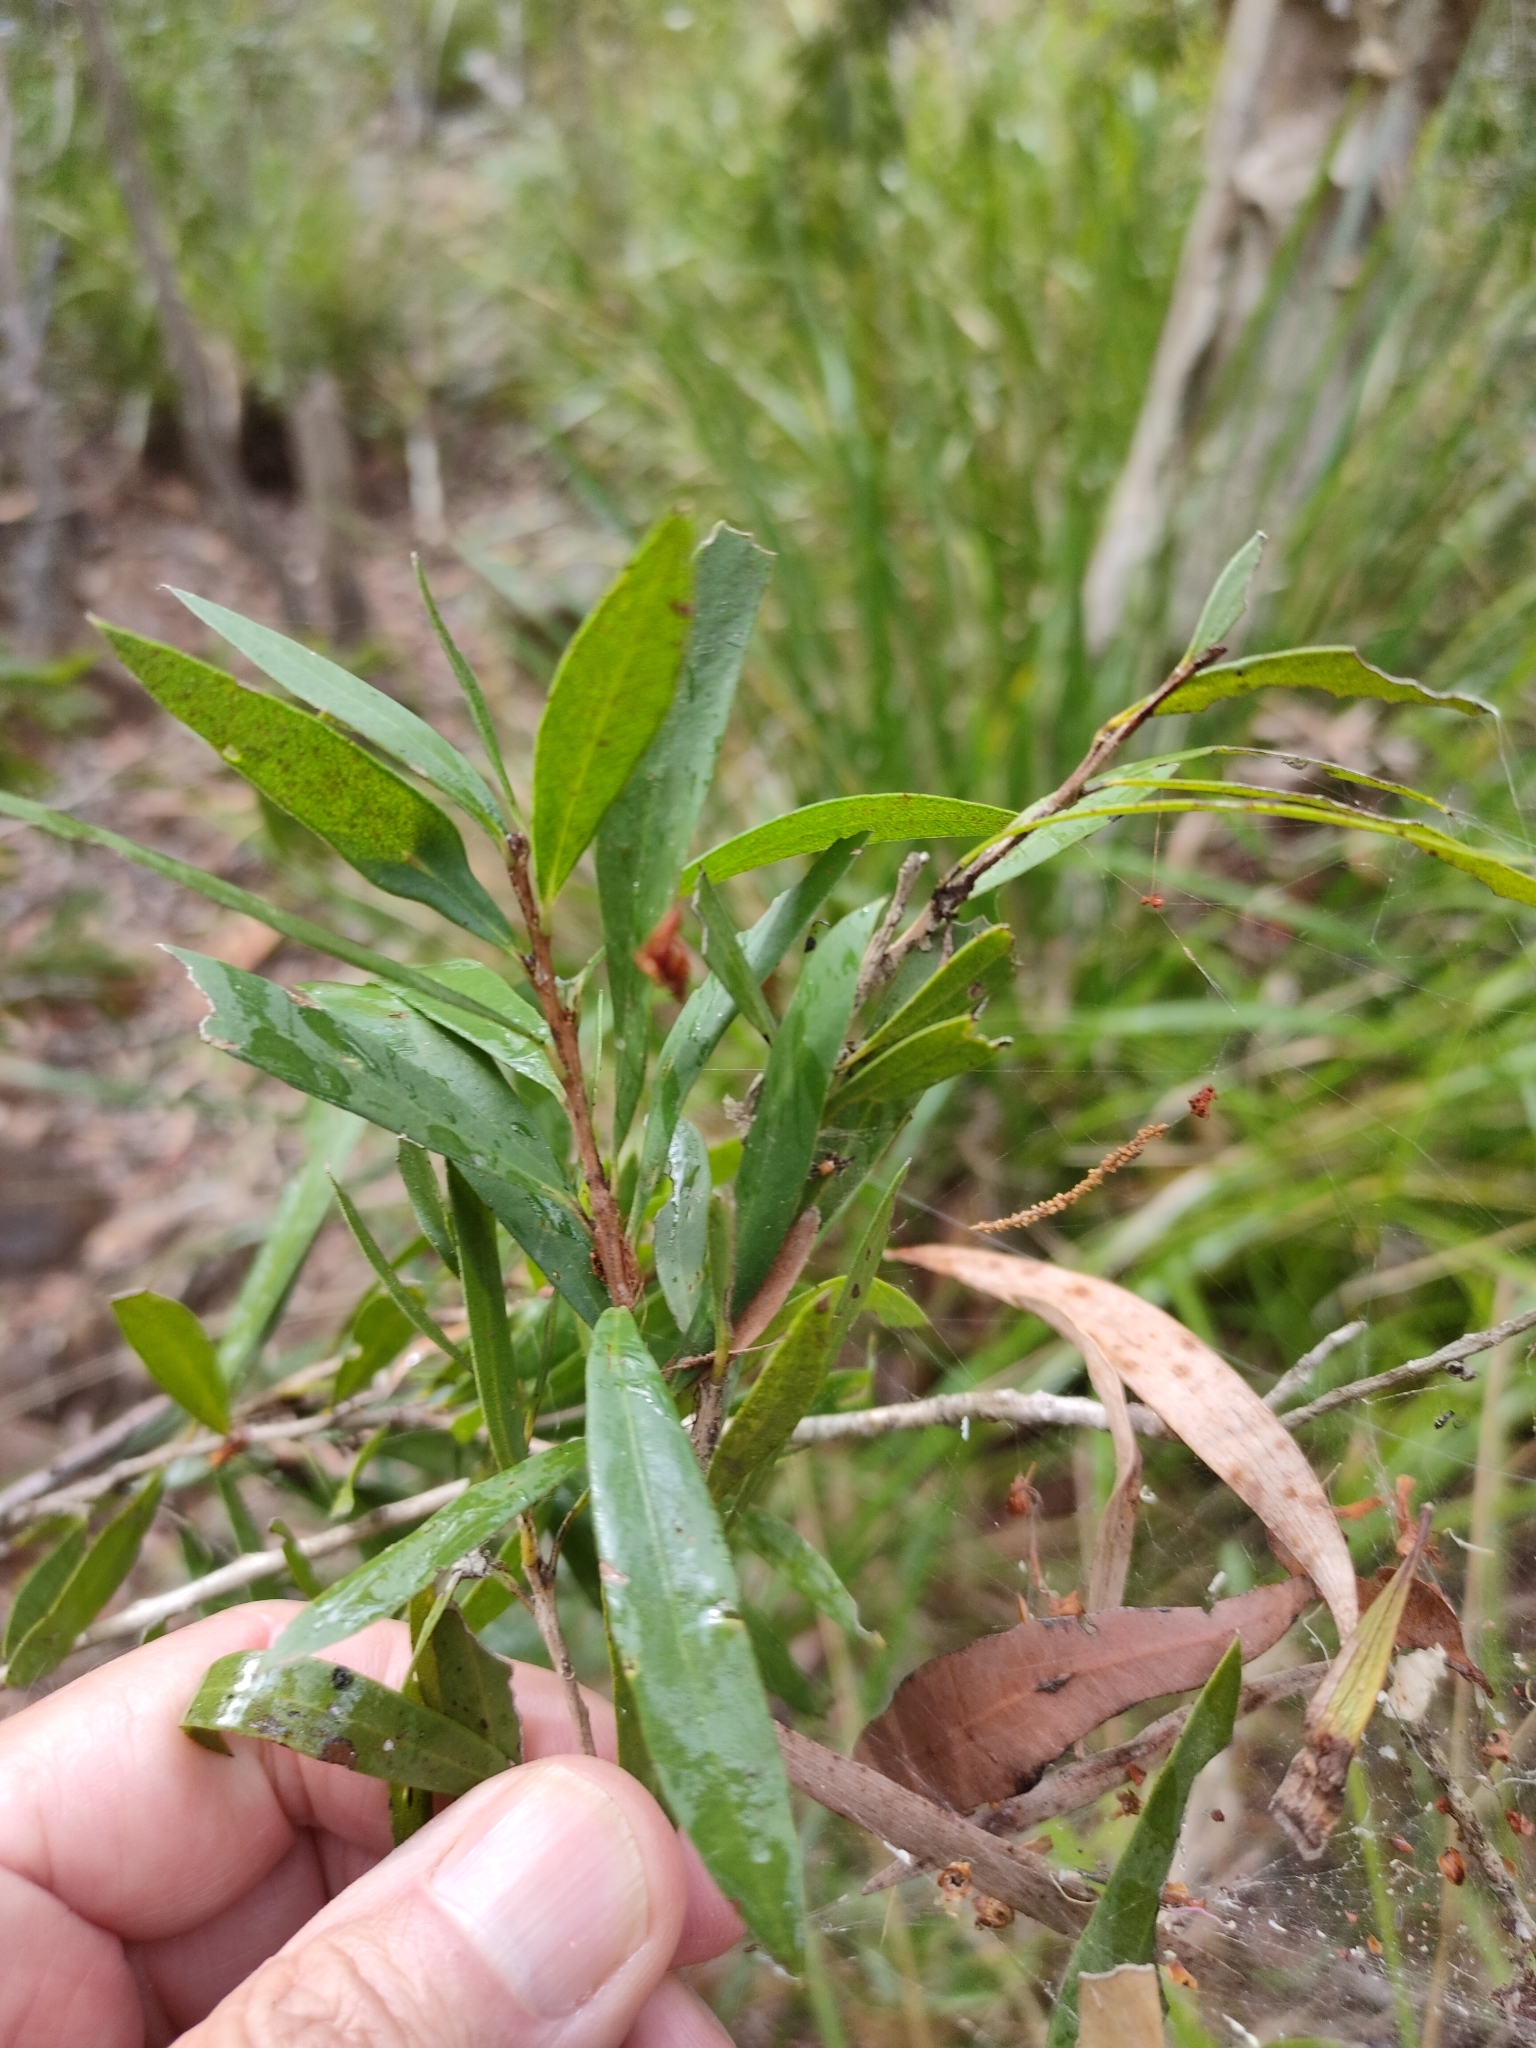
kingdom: Plantae
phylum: Tracheophyta
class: Magnoliopsida
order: Myrtales
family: Myrtaceae
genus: Callistemon
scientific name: Callistemon viminalis
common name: Drooping bottlebrush
